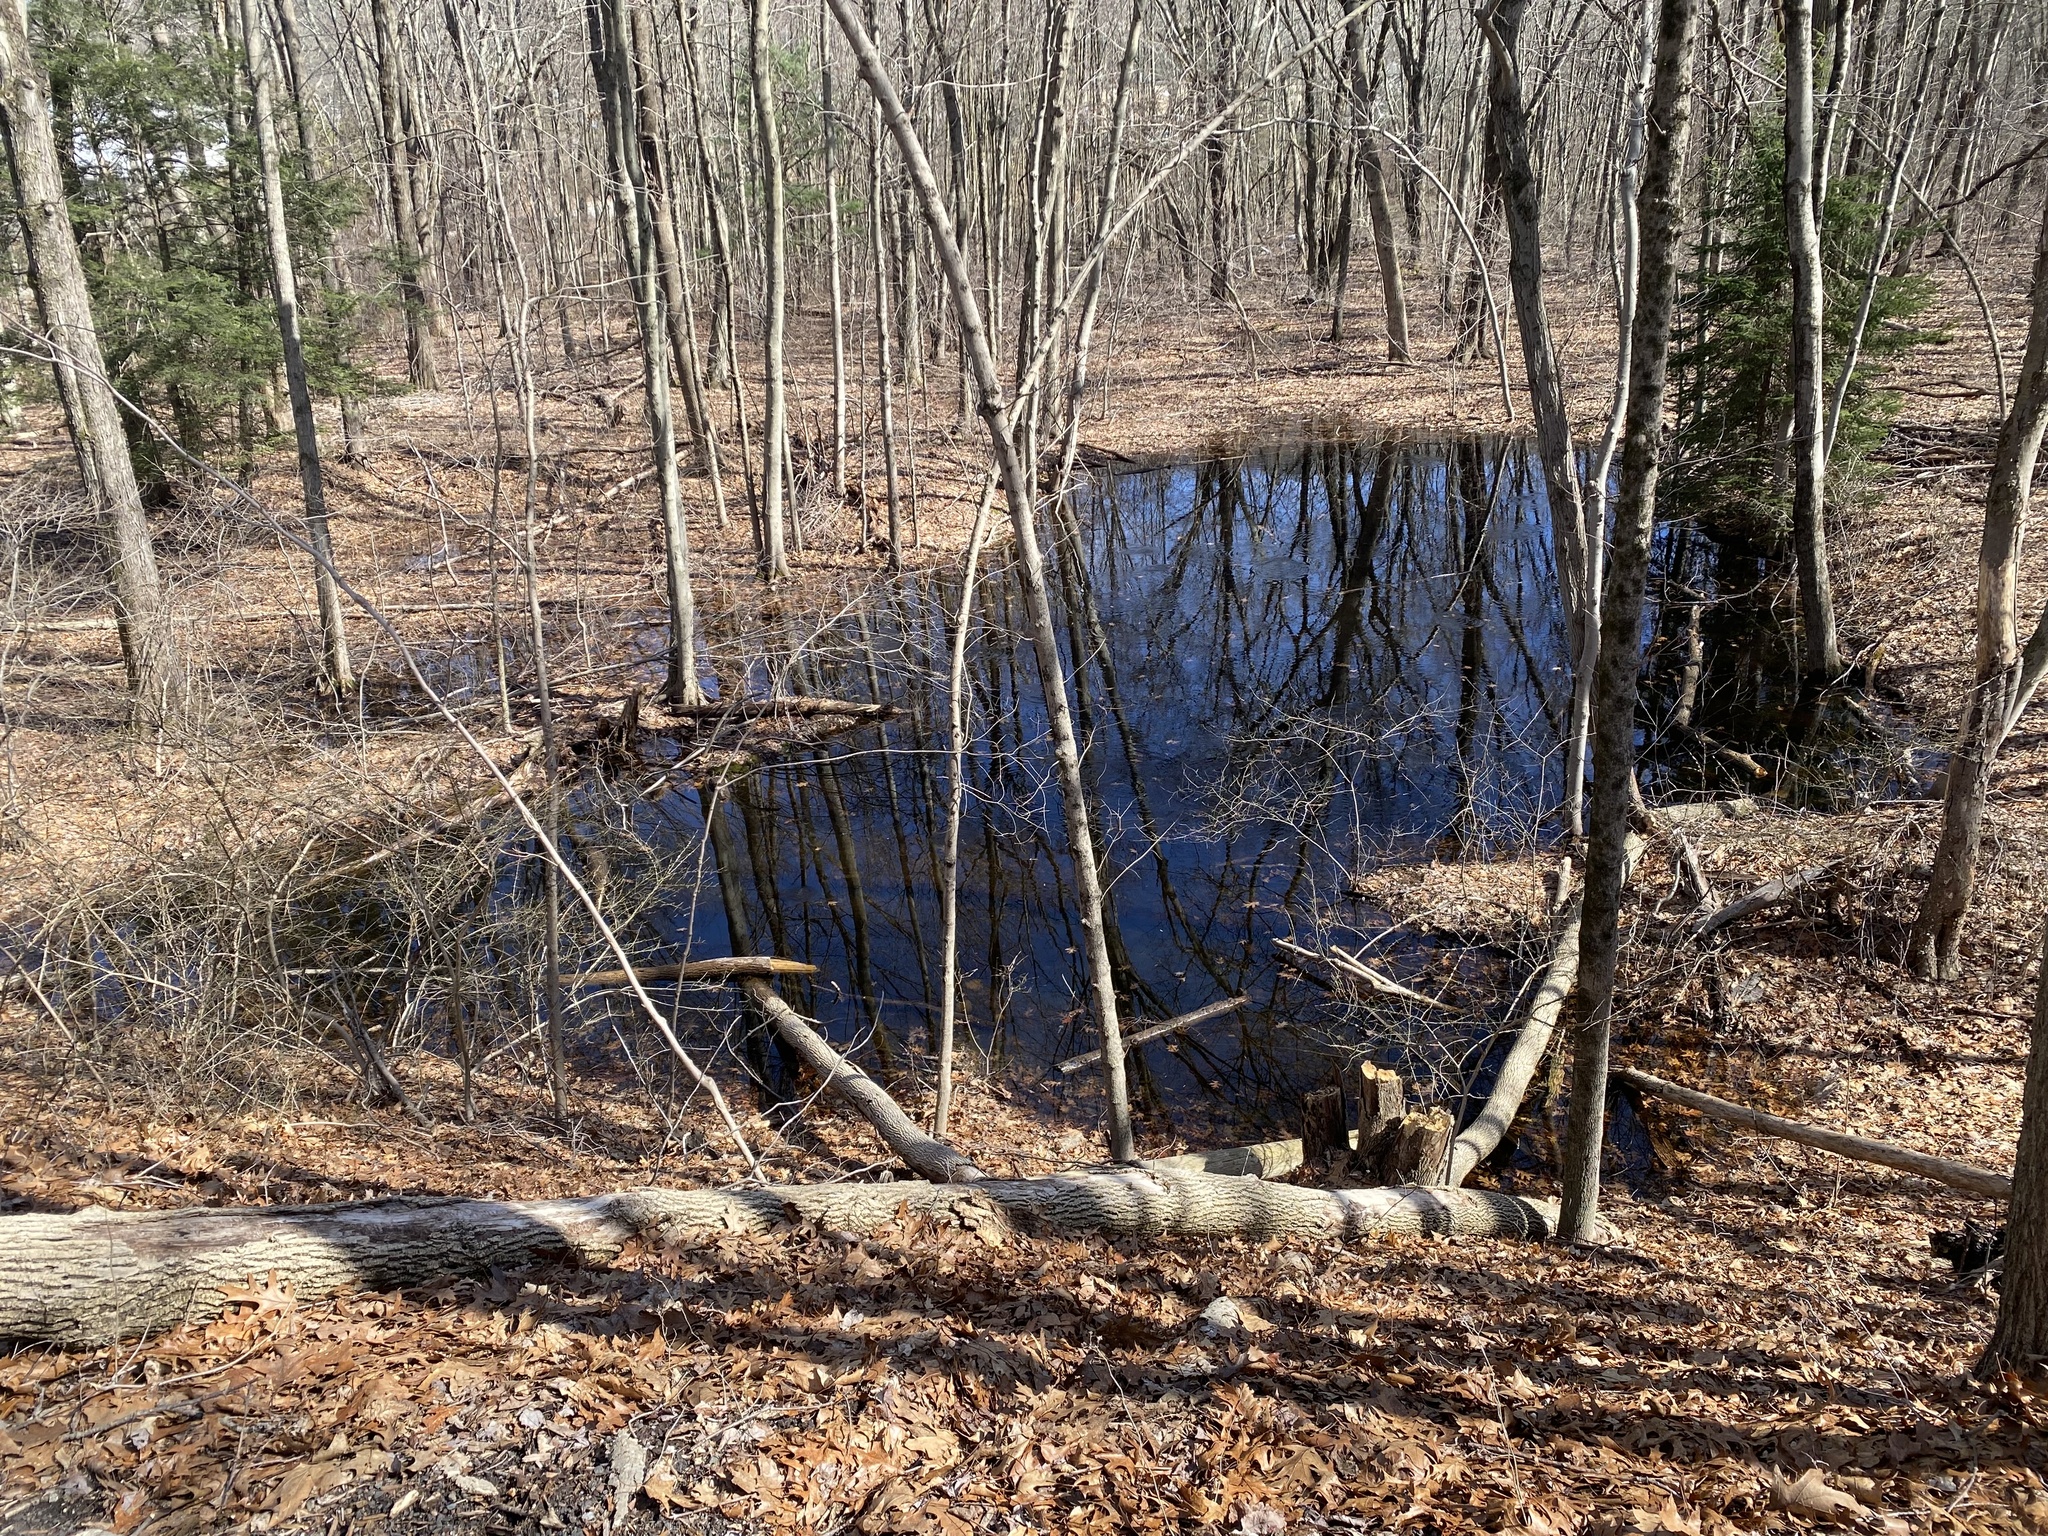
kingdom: Animalia
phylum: Chordata
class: Amphibia
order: Anura
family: Ranidae
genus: Lithobates
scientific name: Lithobates sylvaticus
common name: Wood frog
